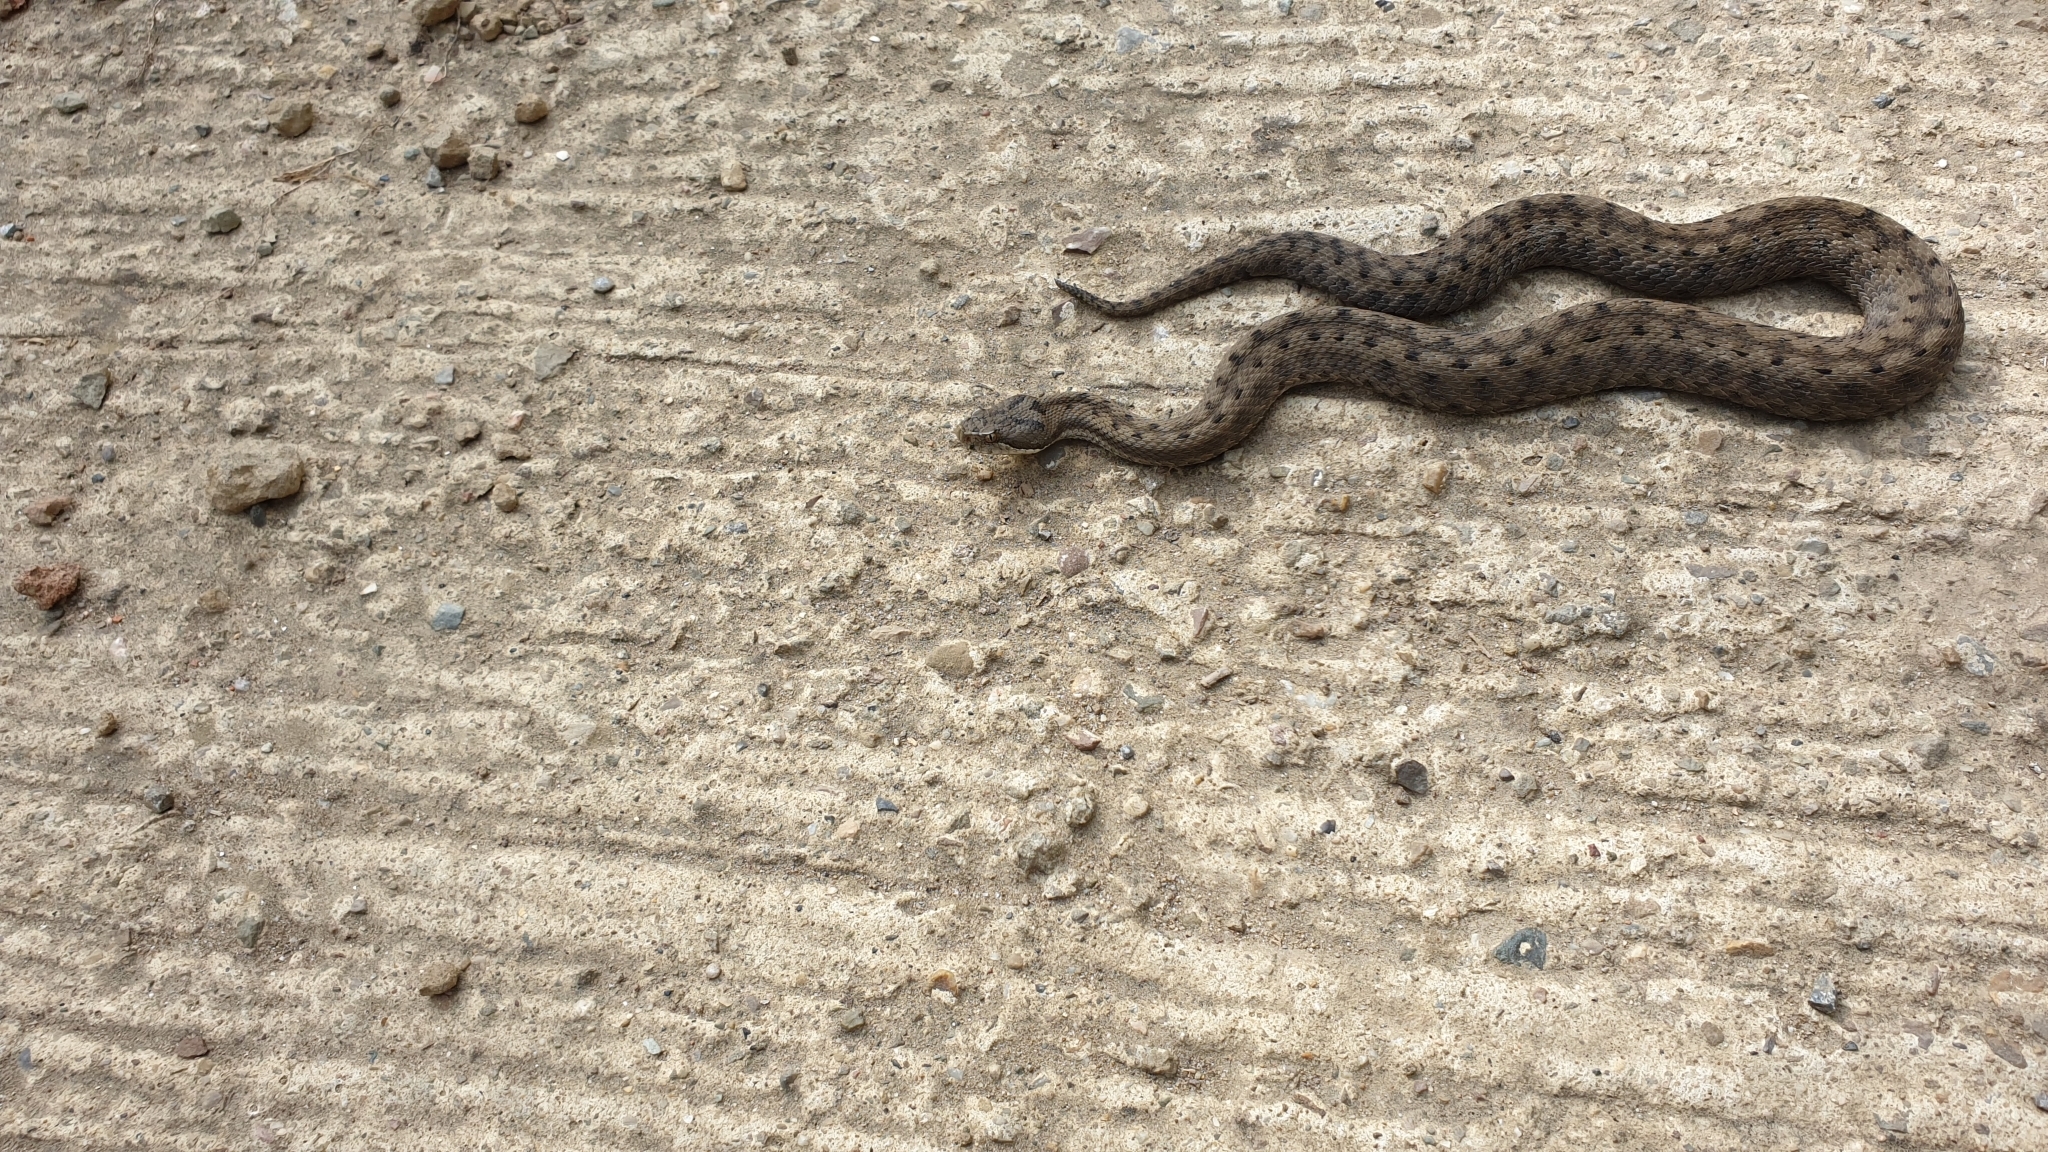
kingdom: Animalia
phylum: Chordata
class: Squamata
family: Viperidae
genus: Vipera
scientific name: Vipera aspis
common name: Asp viper
